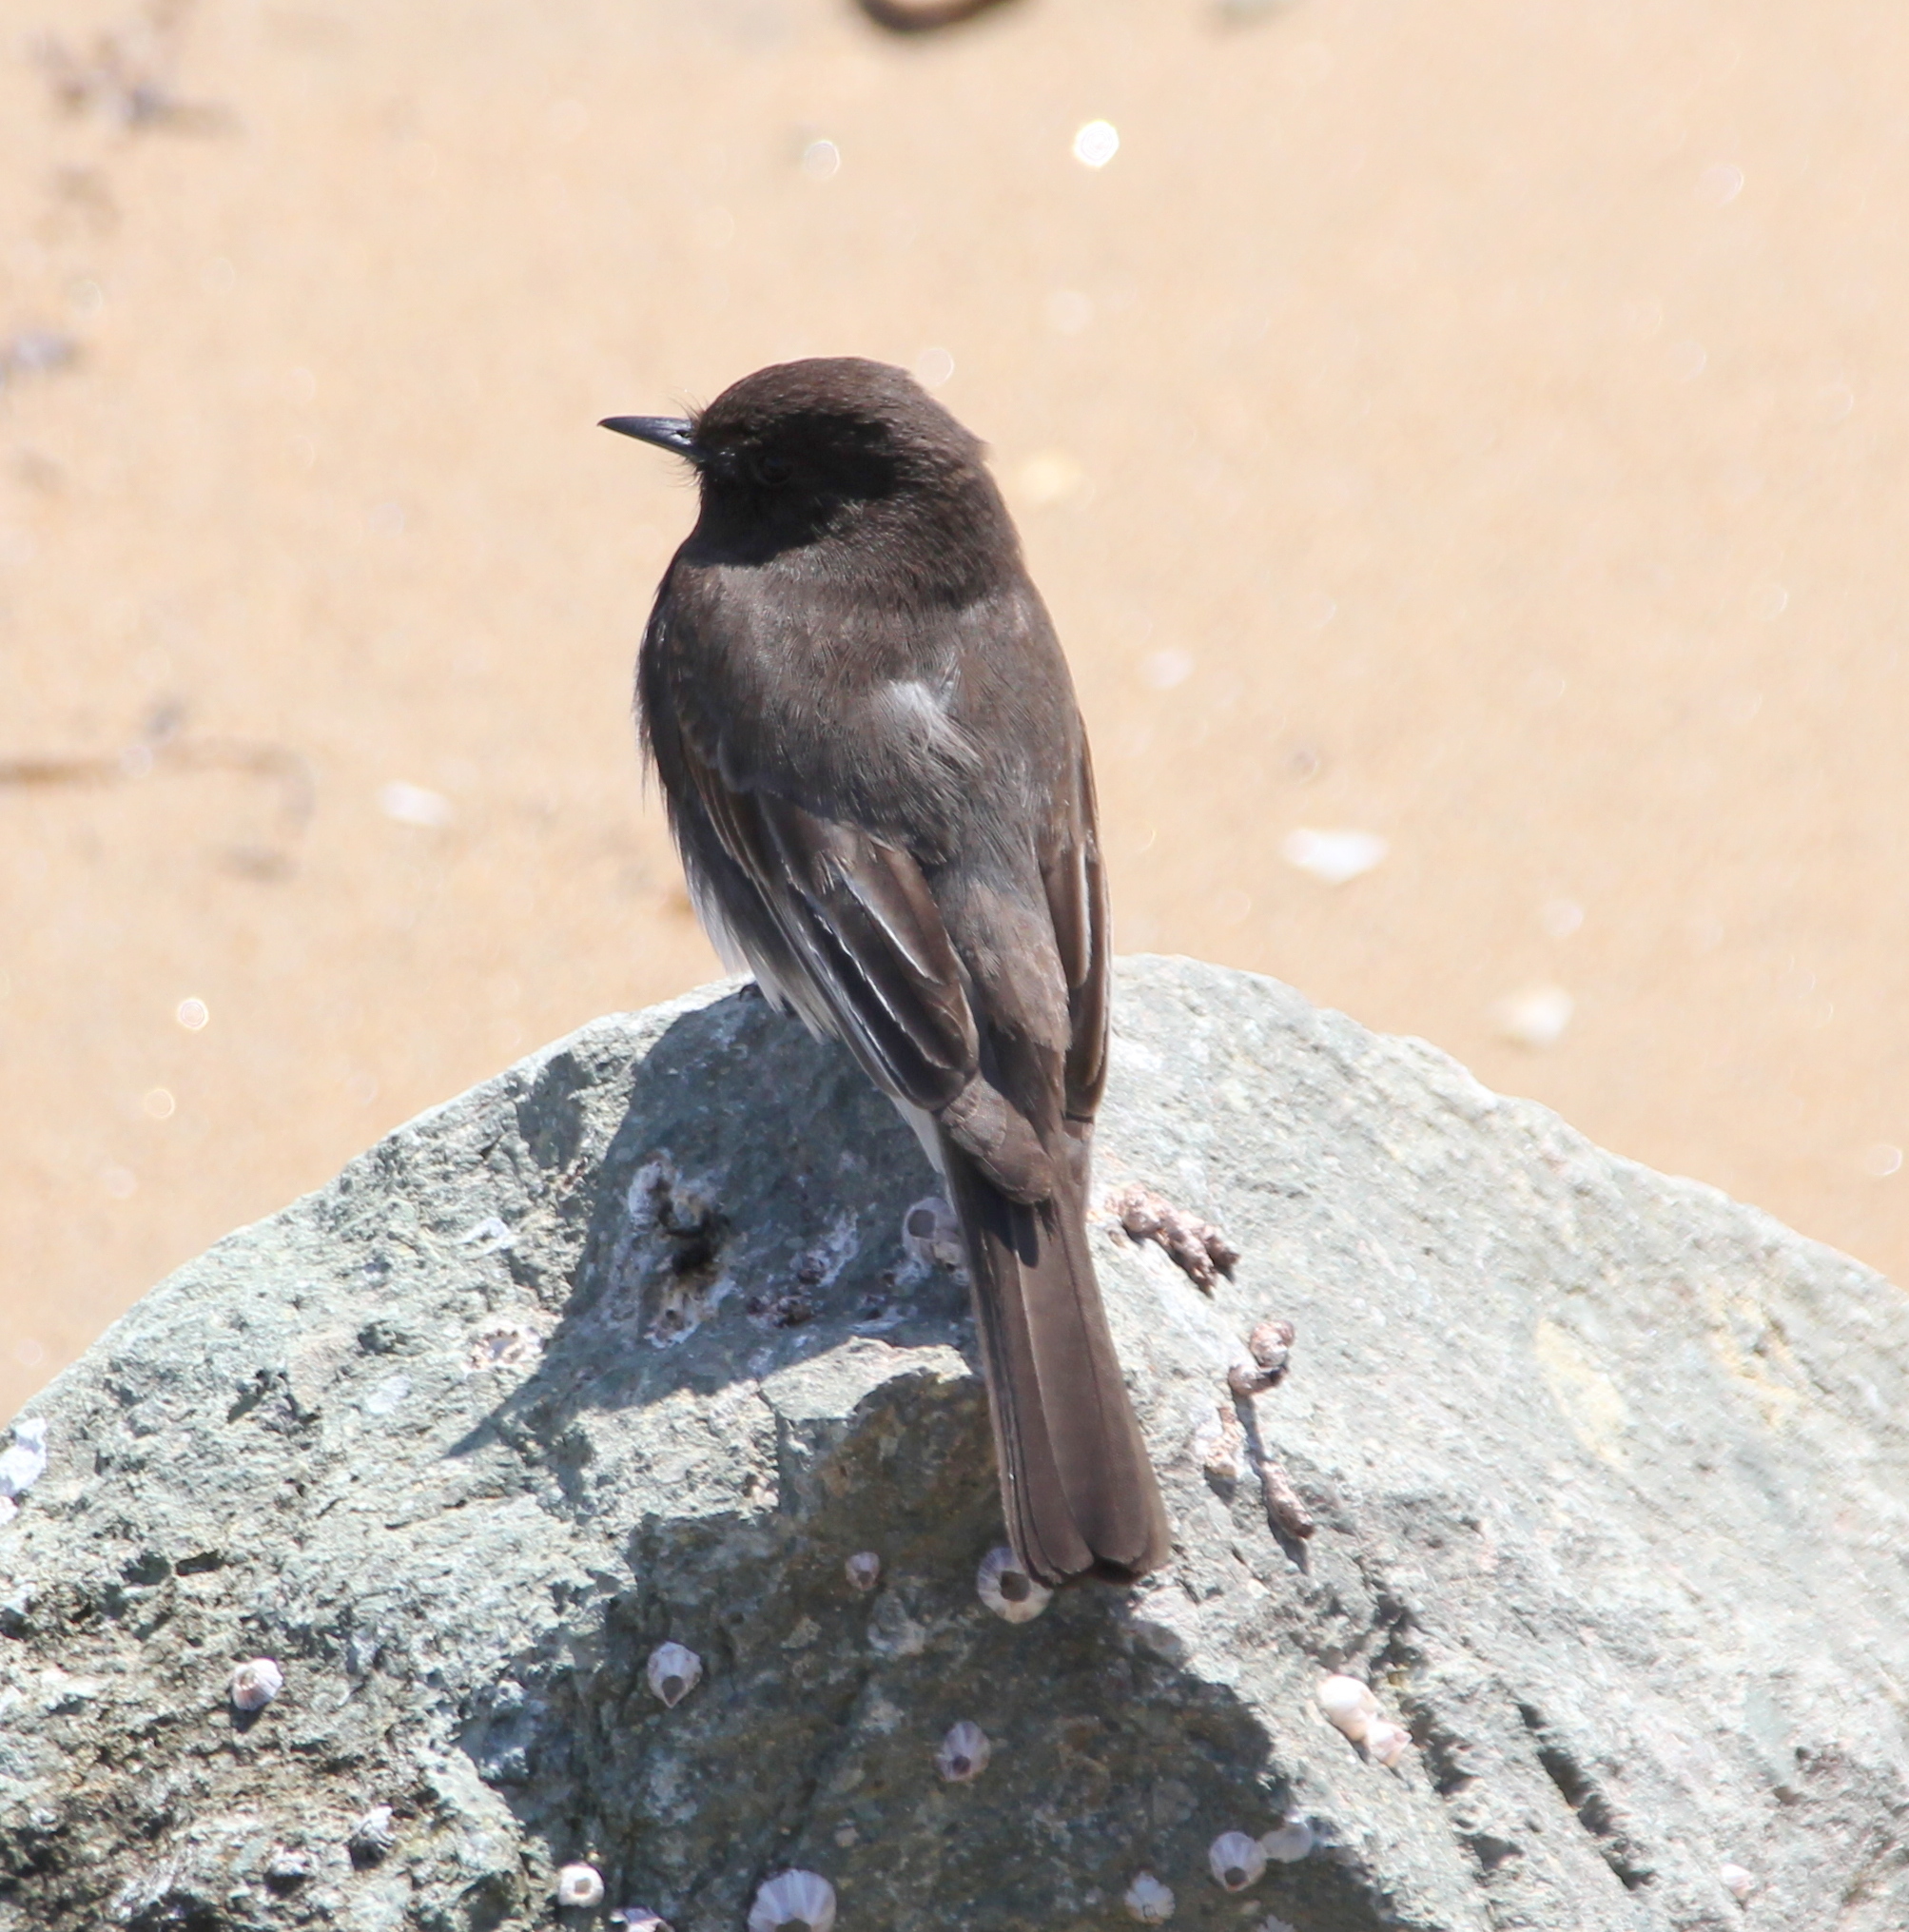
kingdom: Animalia
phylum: Chordata
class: Aves
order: Passeriformes
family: Tyrannidae
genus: Sayornis
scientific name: Sayornis nigricans
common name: Black phoebe
